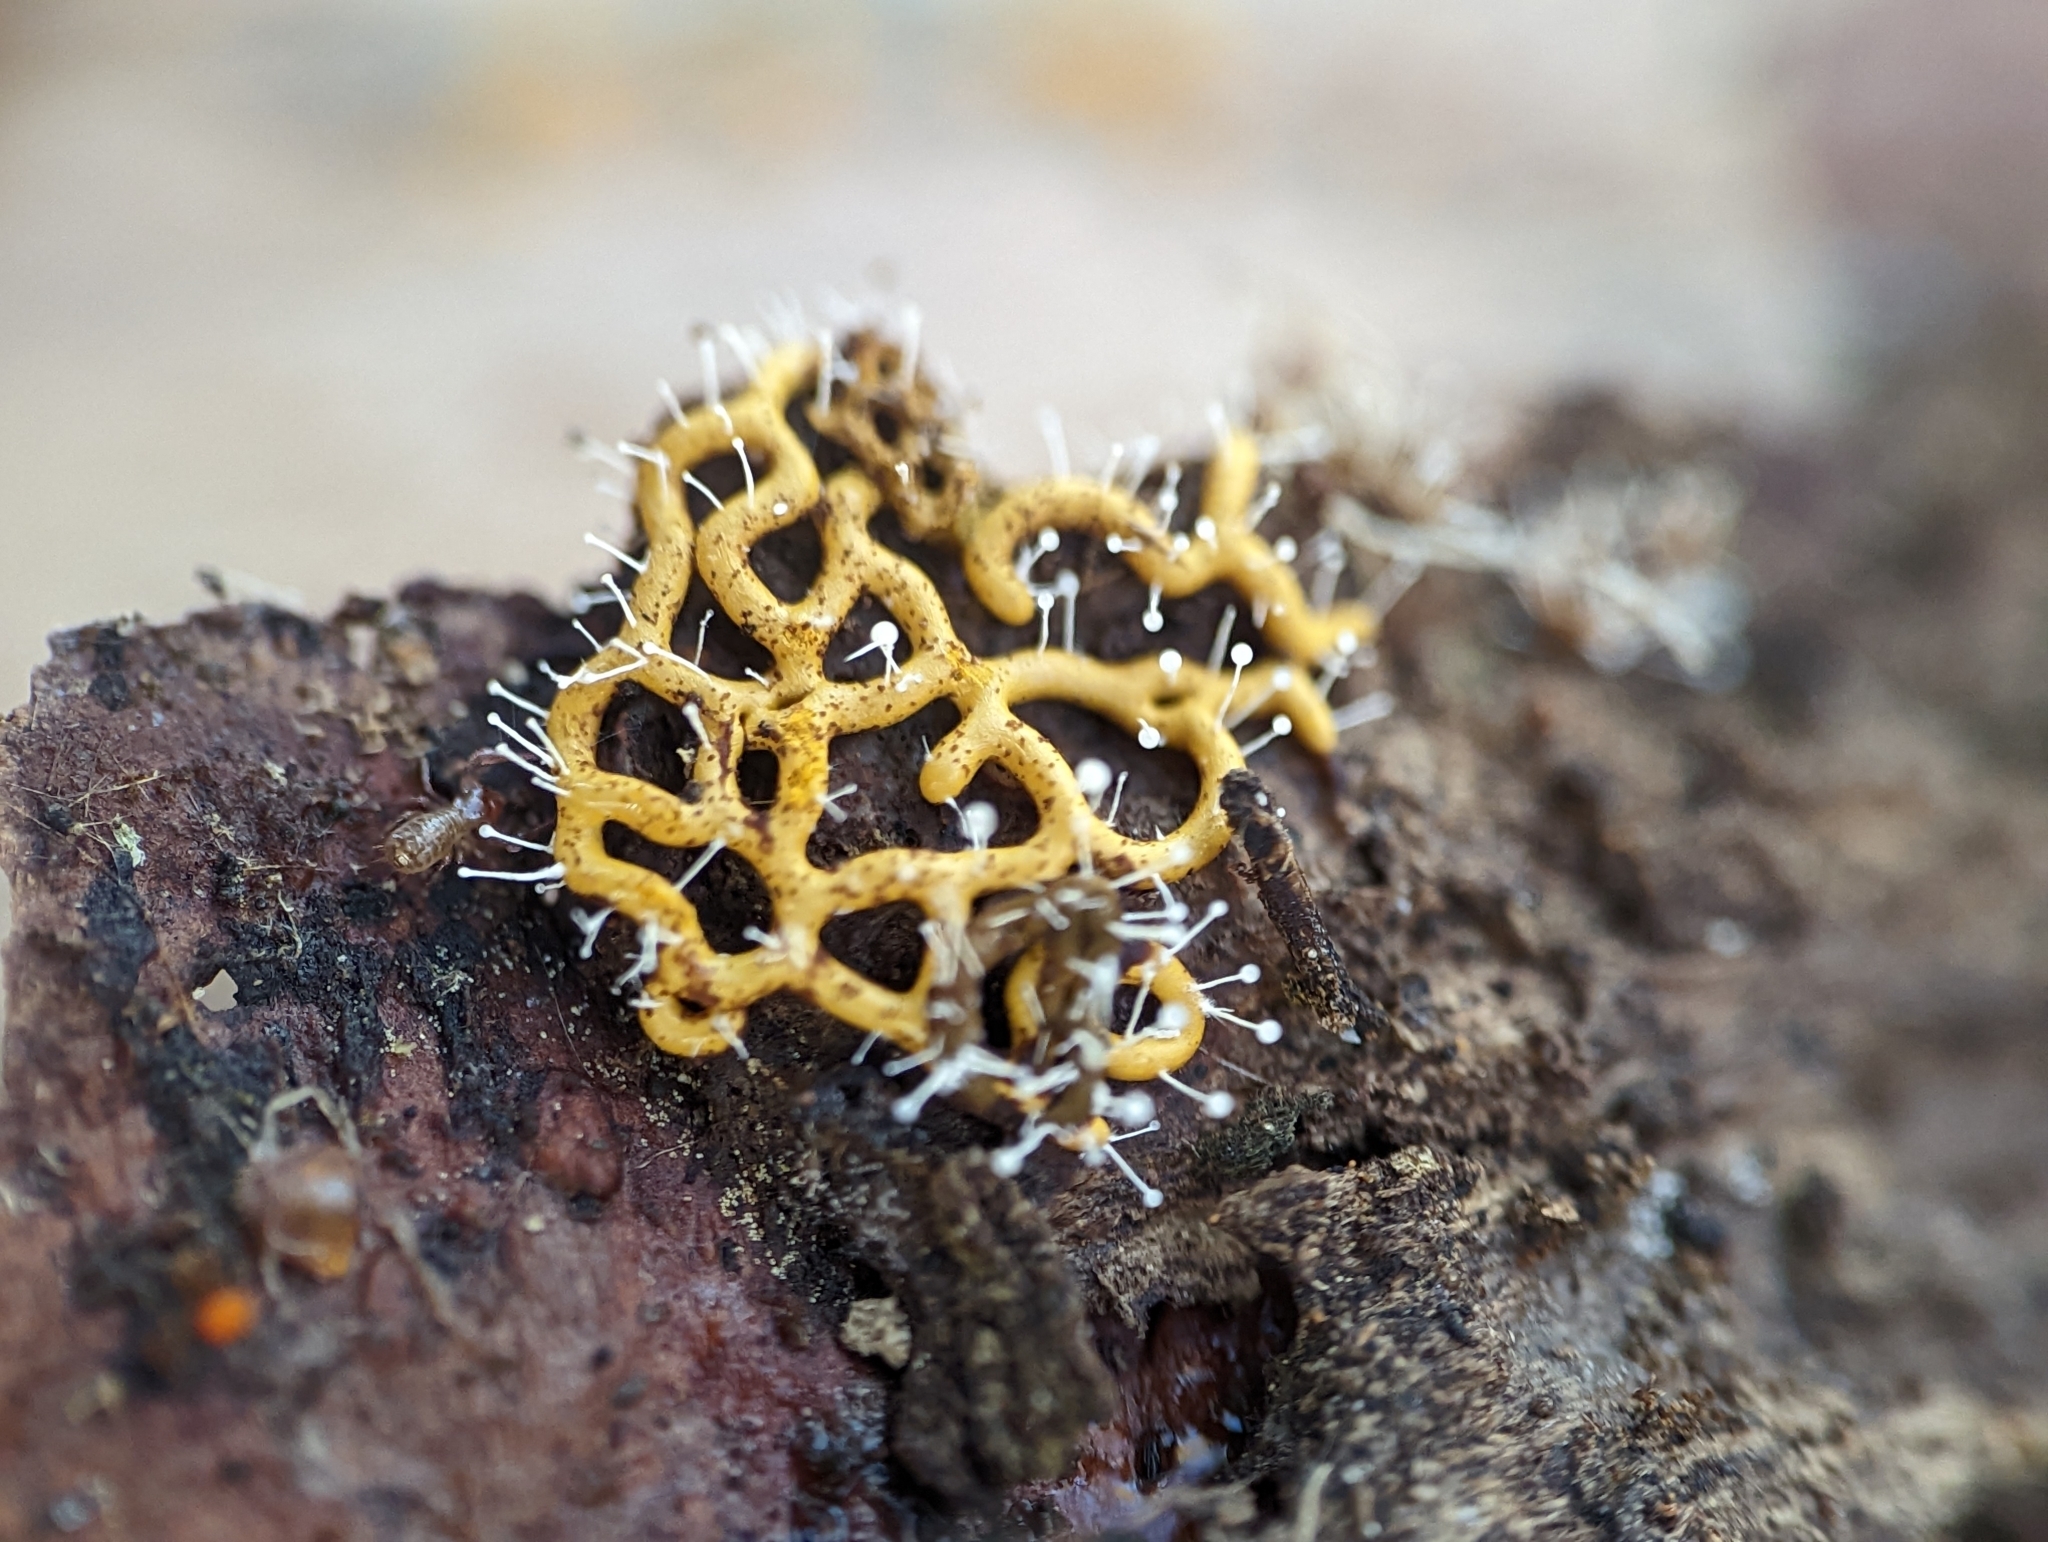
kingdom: Protozoa
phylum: Mycetozoa
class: Myxomycetes
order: Trichiales
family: Arcyriaceae
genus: Hemitrichia
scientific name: Hemitrichia serpula
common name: Pretzel slime mold
